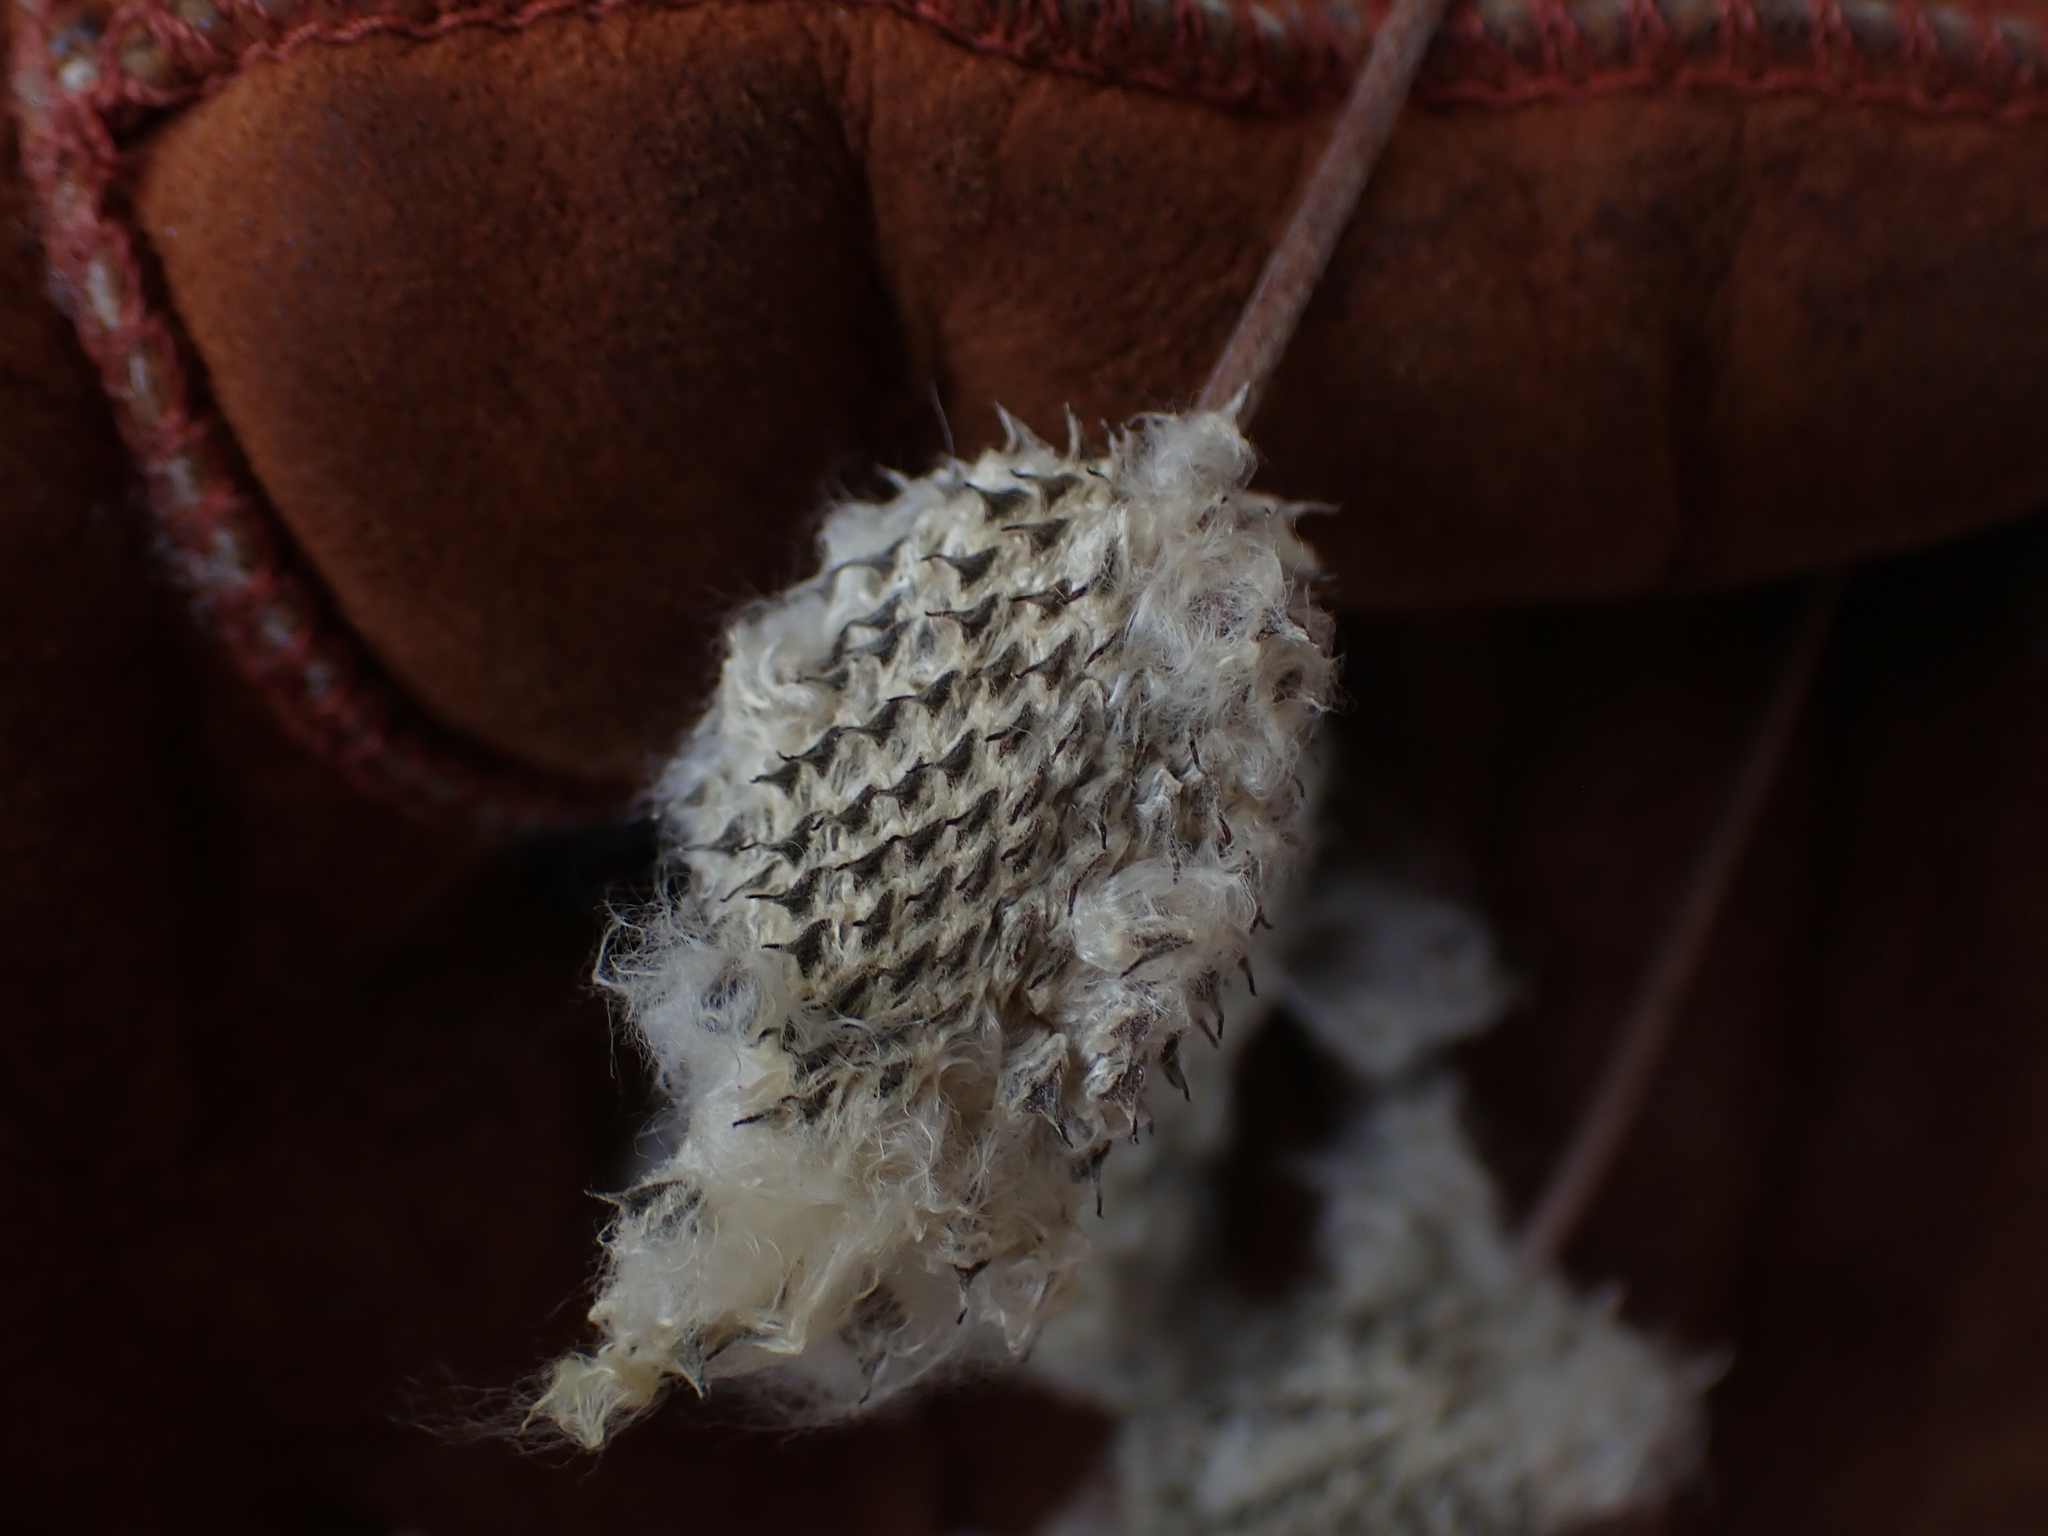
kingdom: Plantae
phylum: Tracheophyta
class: Magnoliopsida
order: Ranunculales
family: Ranunculaceae
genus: Anemone
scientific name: Anemone virginiana
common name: Tall anemone
